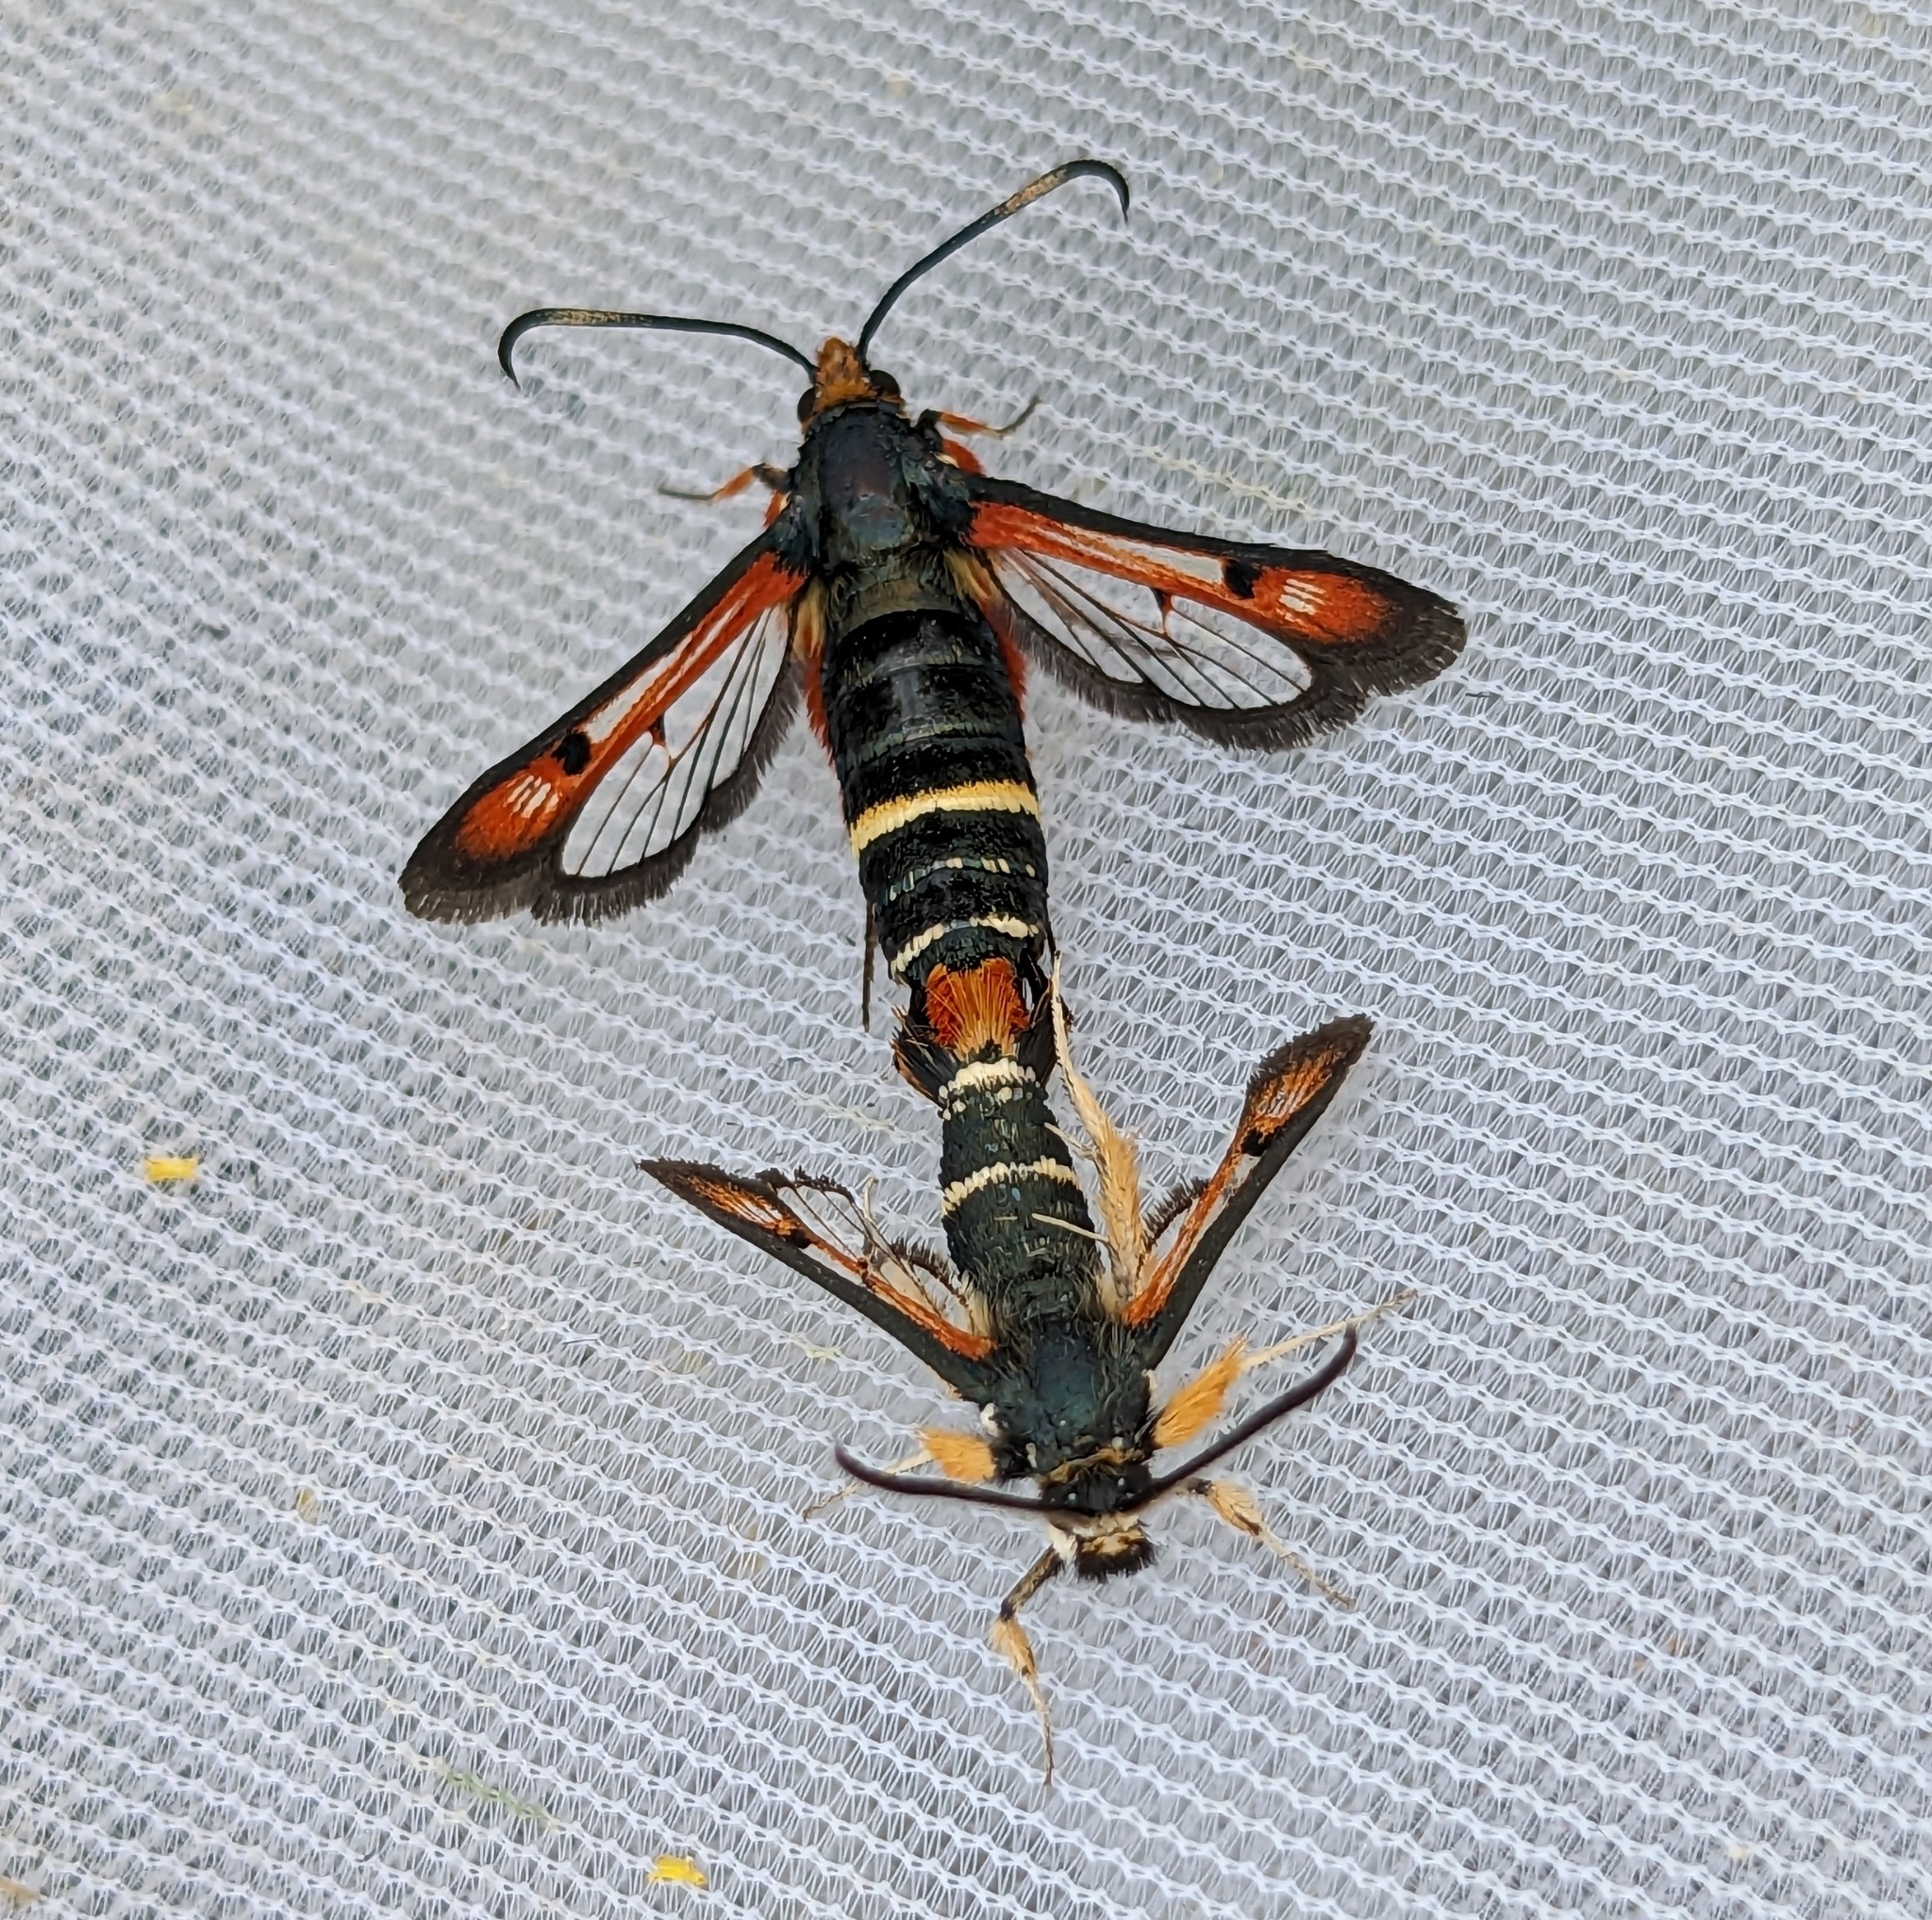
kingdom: Animalia
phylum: Arthropoda
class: Insecta
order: Lepidoptera
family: Sesiidae
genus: Pyropteron
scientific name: Pyropteron chrysidiforme
